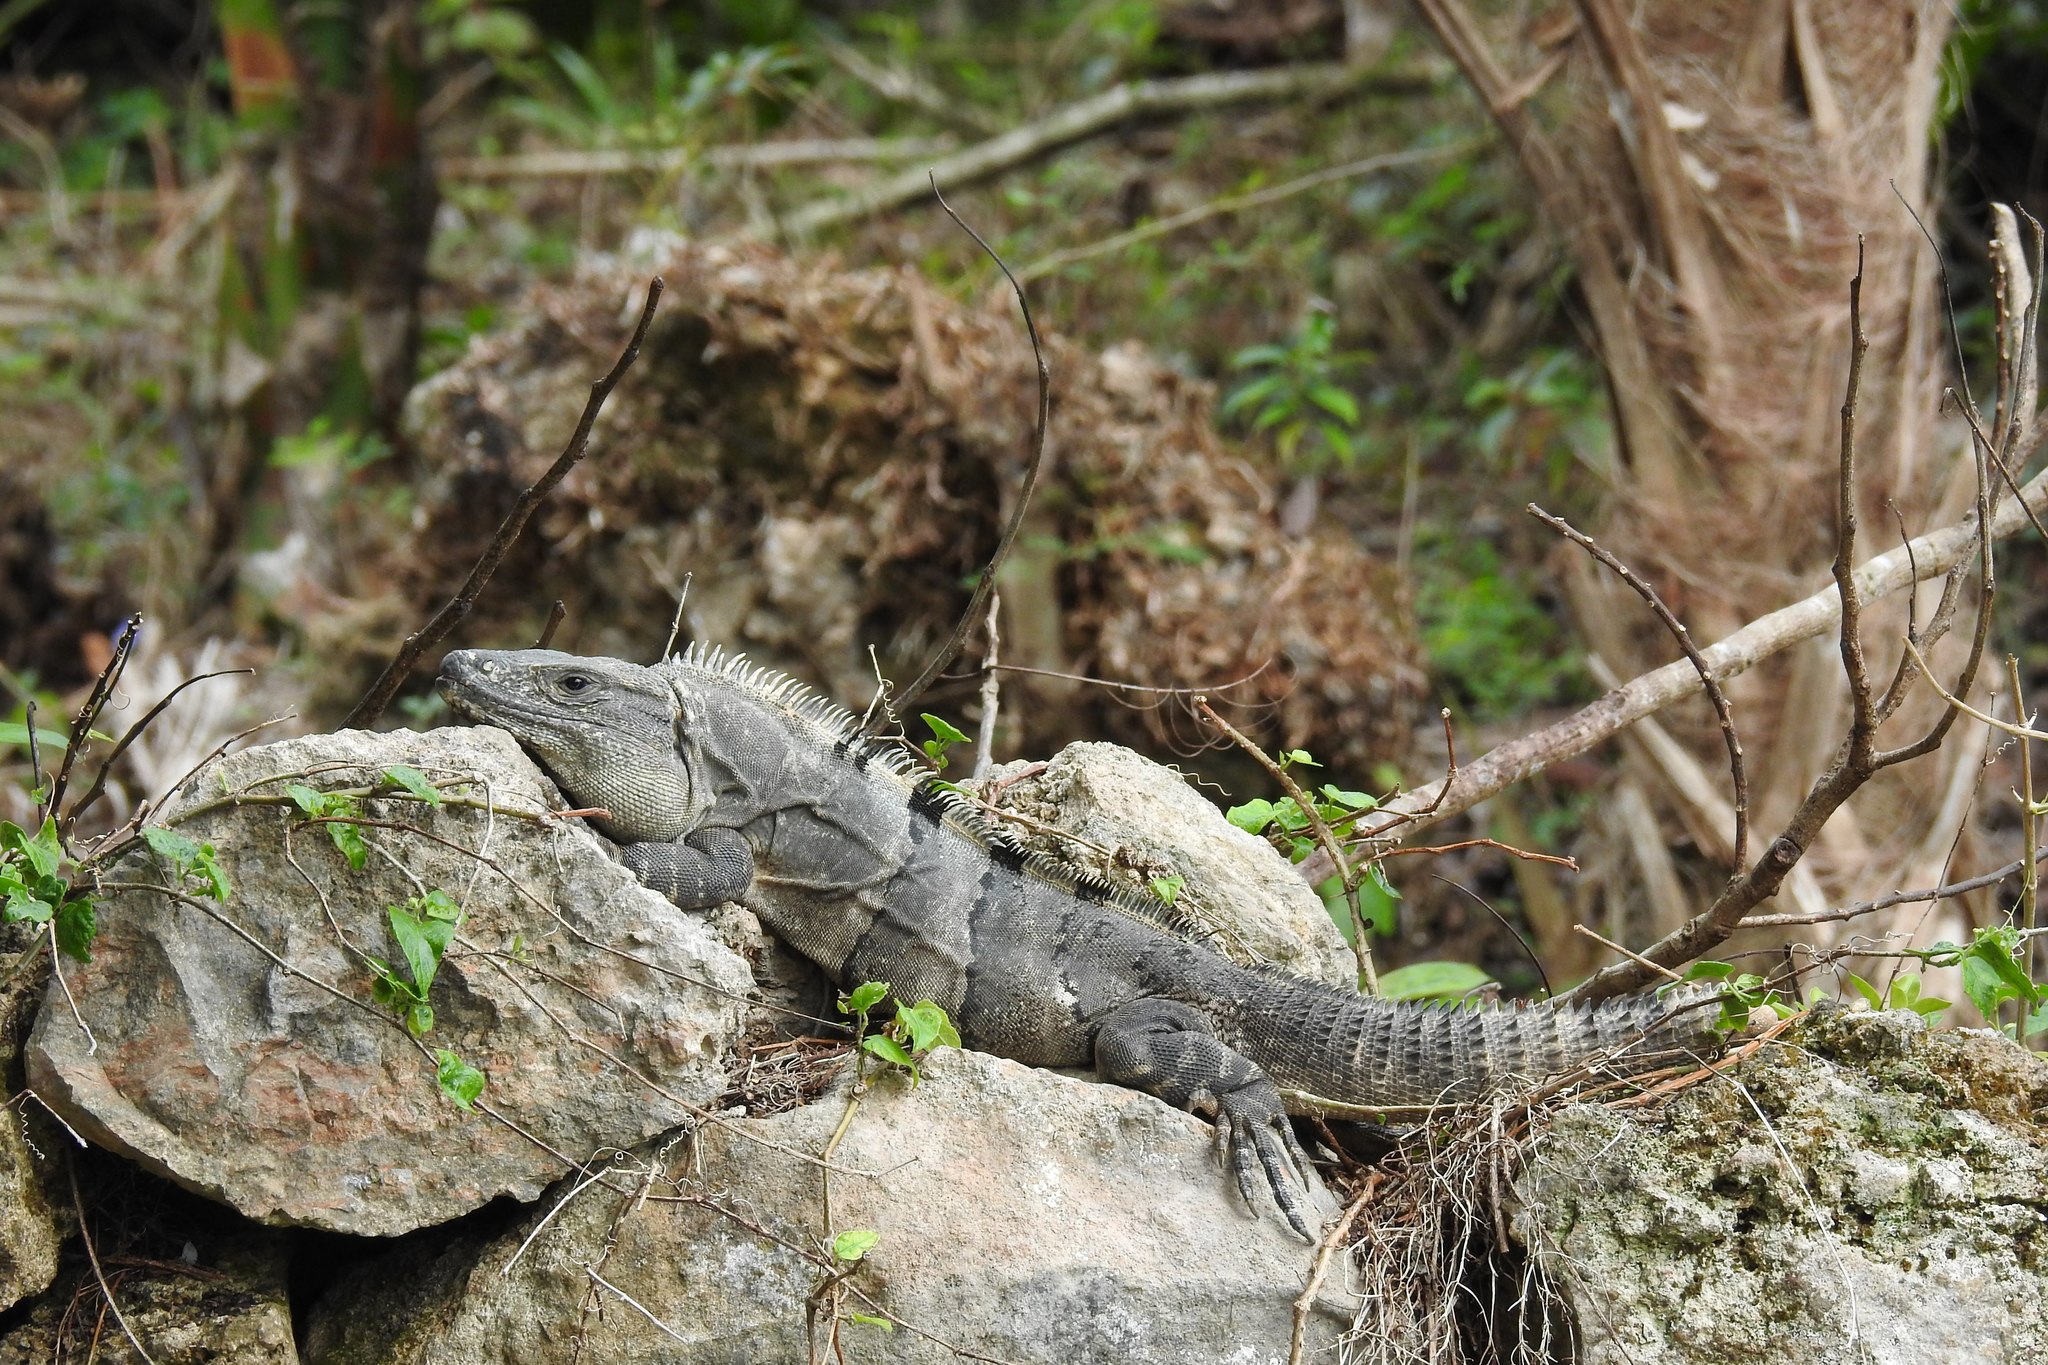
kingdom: Animalia
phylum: Chordata
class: Squamata
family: Iguanidae
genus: Ctenosaura
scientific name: Ctenosaura similis
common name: Black spiny-tailed iguana
